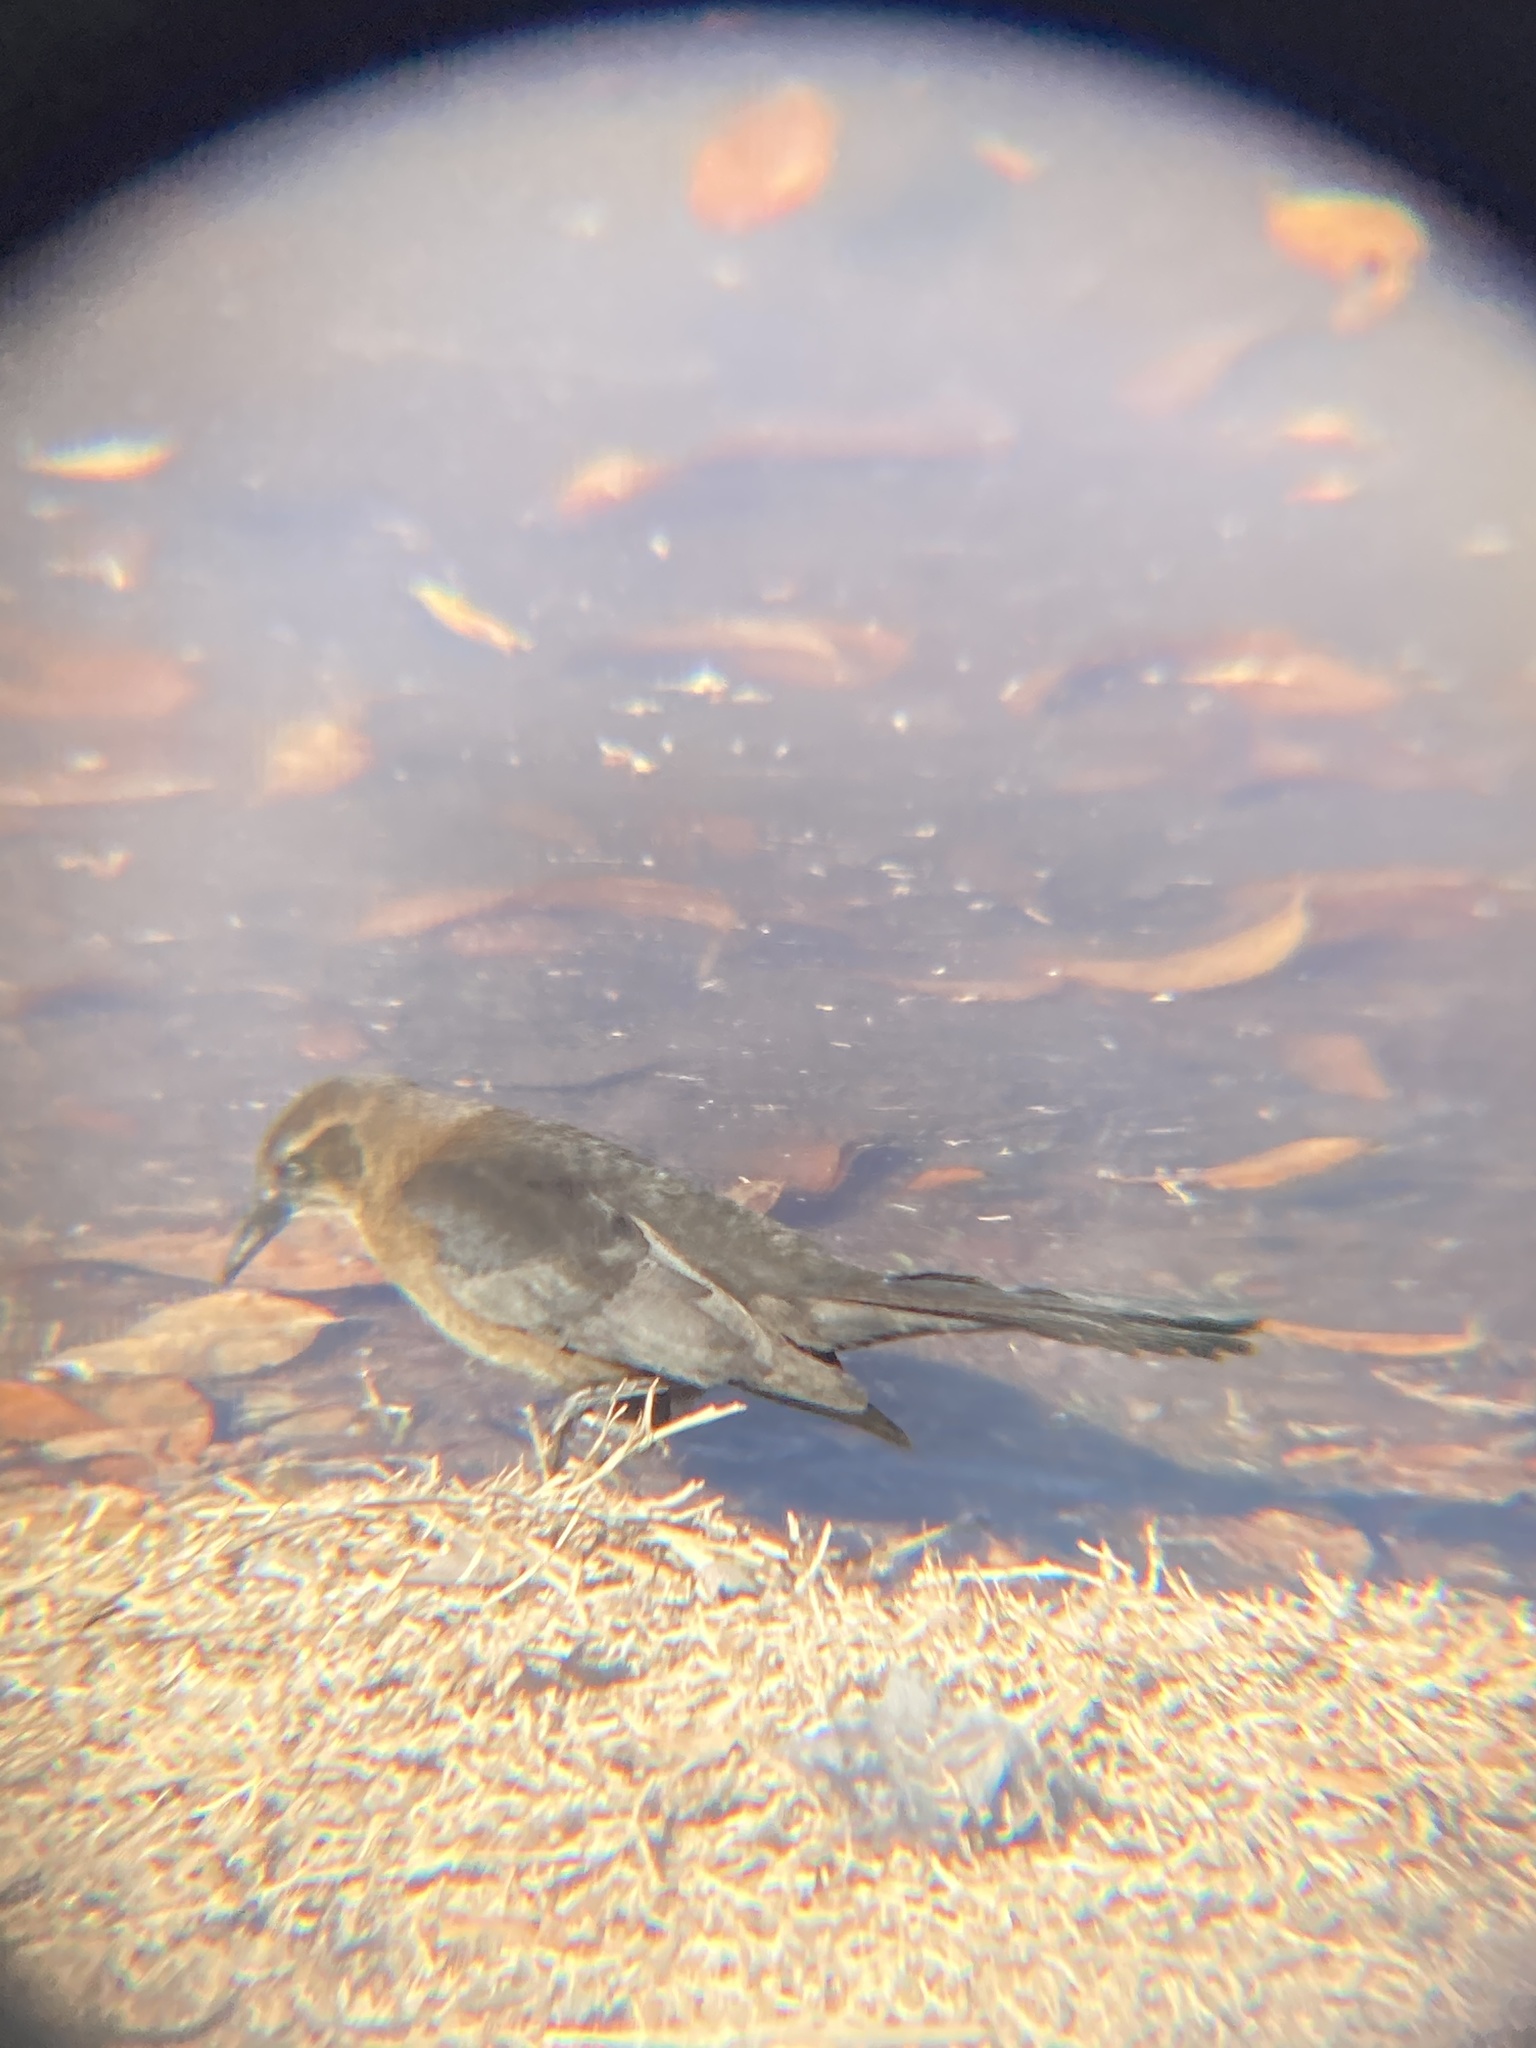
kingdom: Animalia
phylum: Chordata
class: Aves
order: Passeriformes
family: Icteridae
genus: Quiscalus
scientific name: Quiscalus mexicanus
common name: Great-tailed grackle
